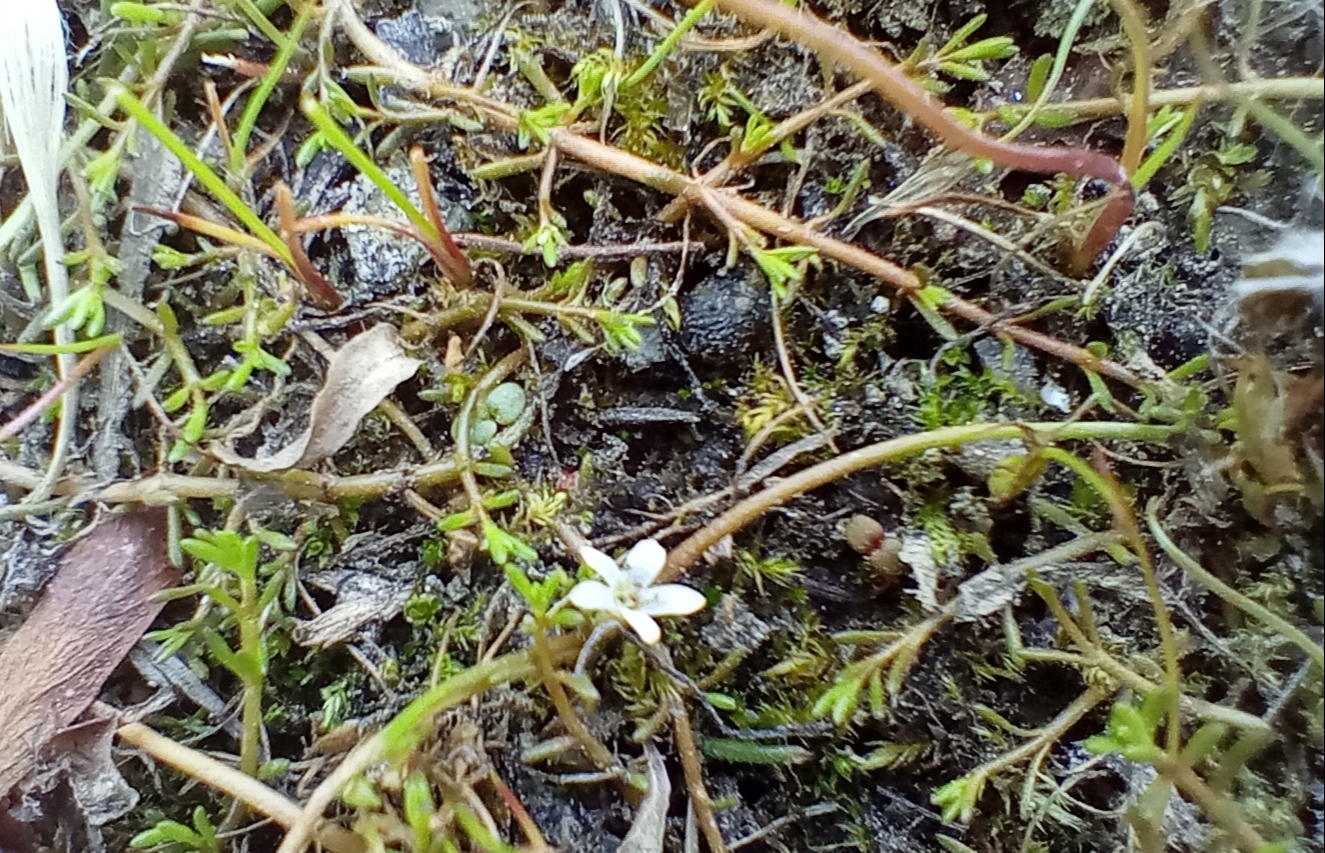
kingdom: Plantae
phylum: Tracheophyta
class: Magnoliopsida
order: Lamiales
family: Scrophulariaceae
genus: Limosella
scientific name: Limosella australis
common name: Welsh mudwort
